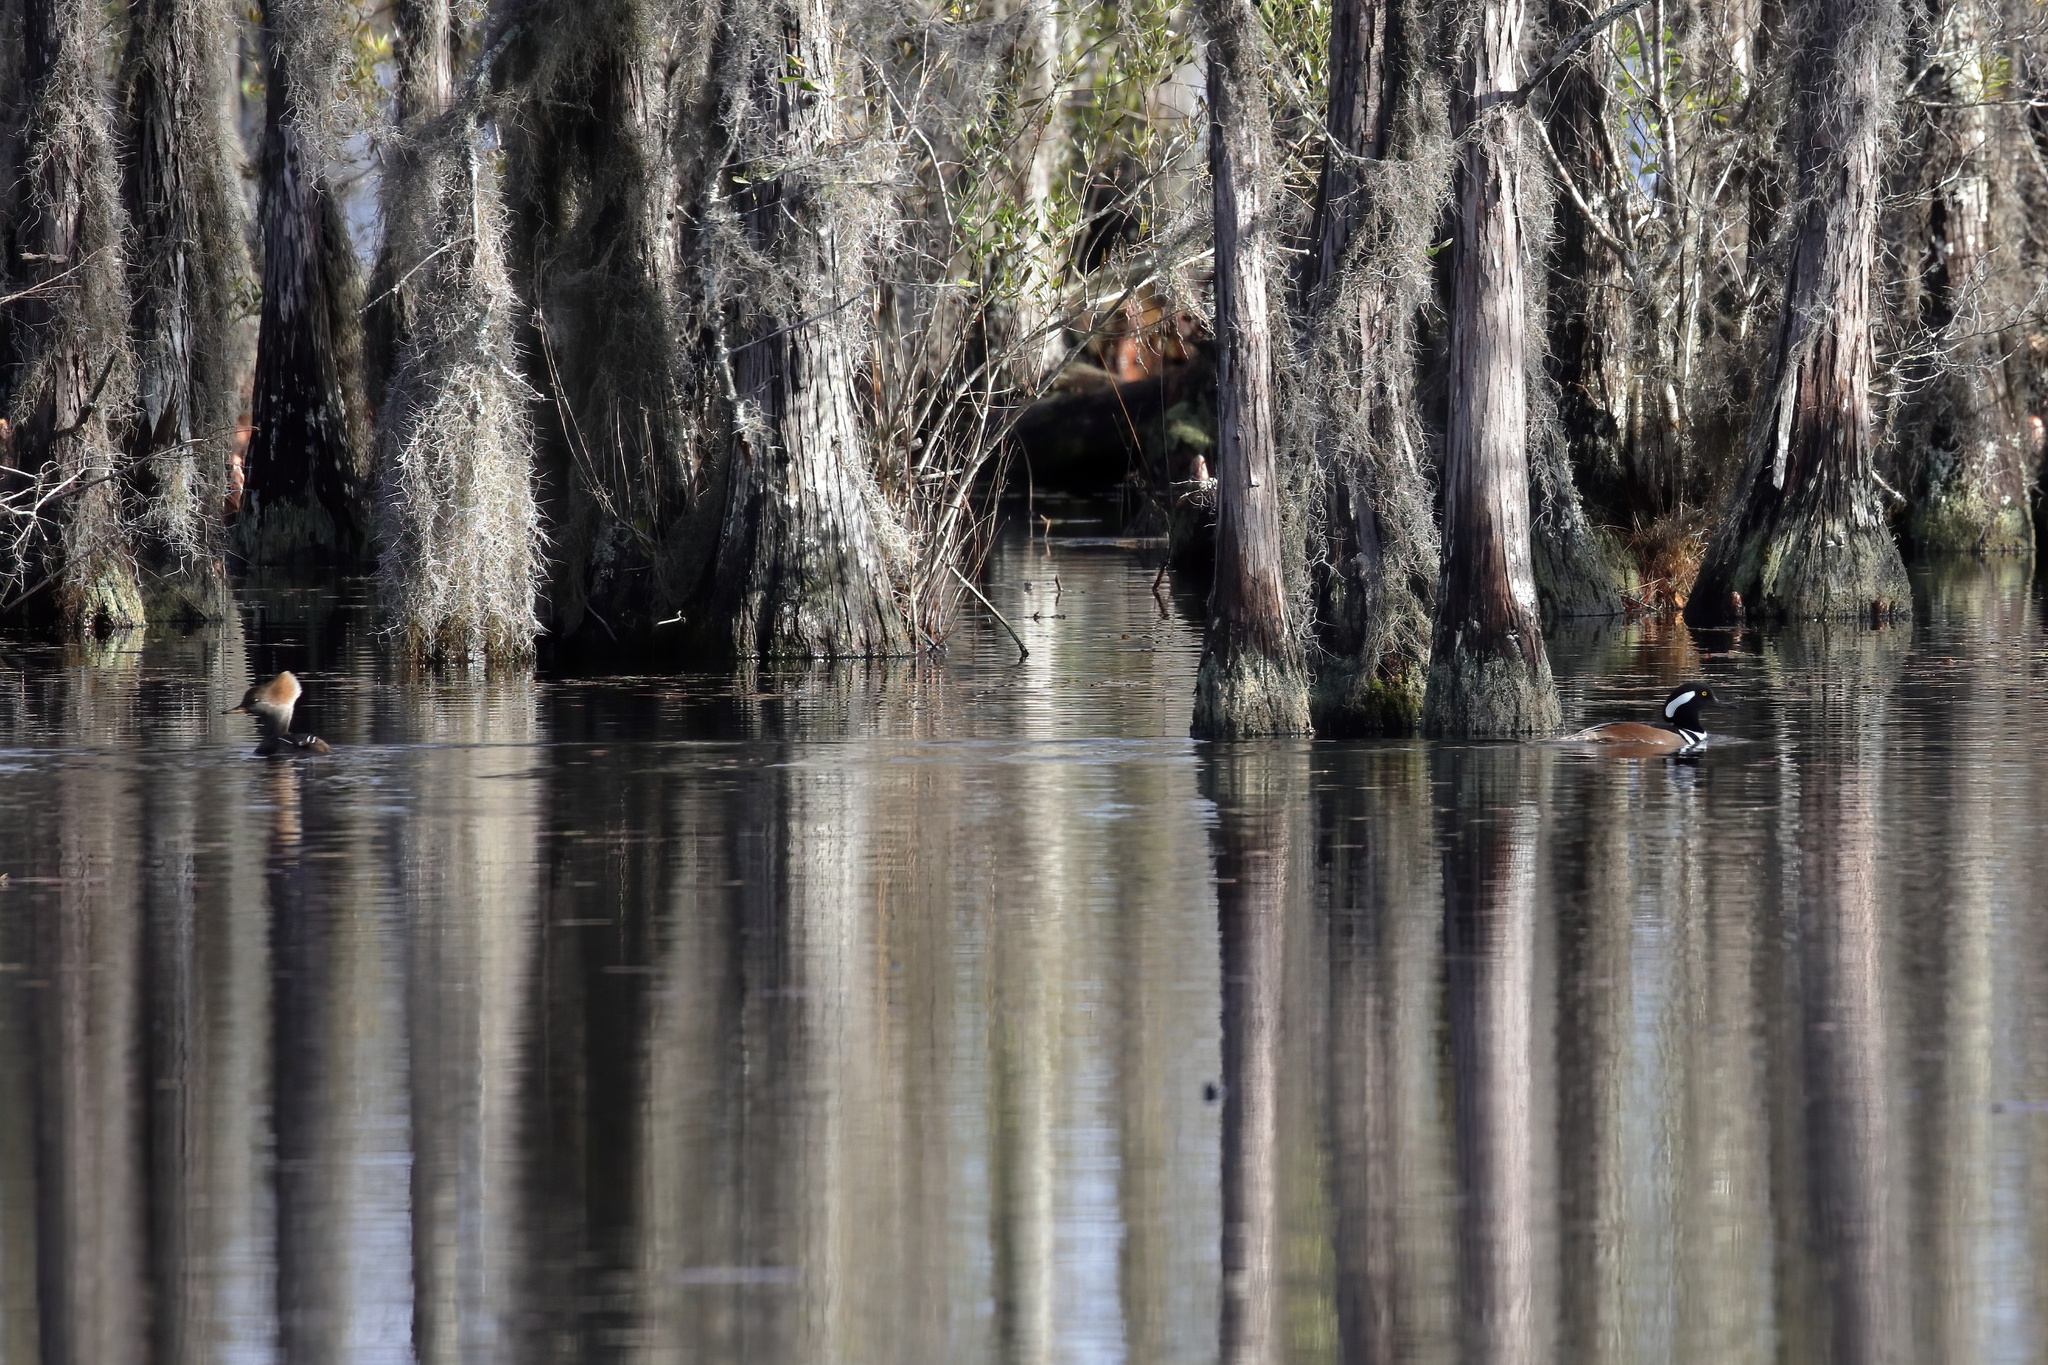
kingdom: Animalia
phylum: Chordata
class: Aves
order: Anseriformes
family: Anatidae
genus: Lophodytes
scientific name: Lophodytes cucullatus
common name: Hooded merganser
